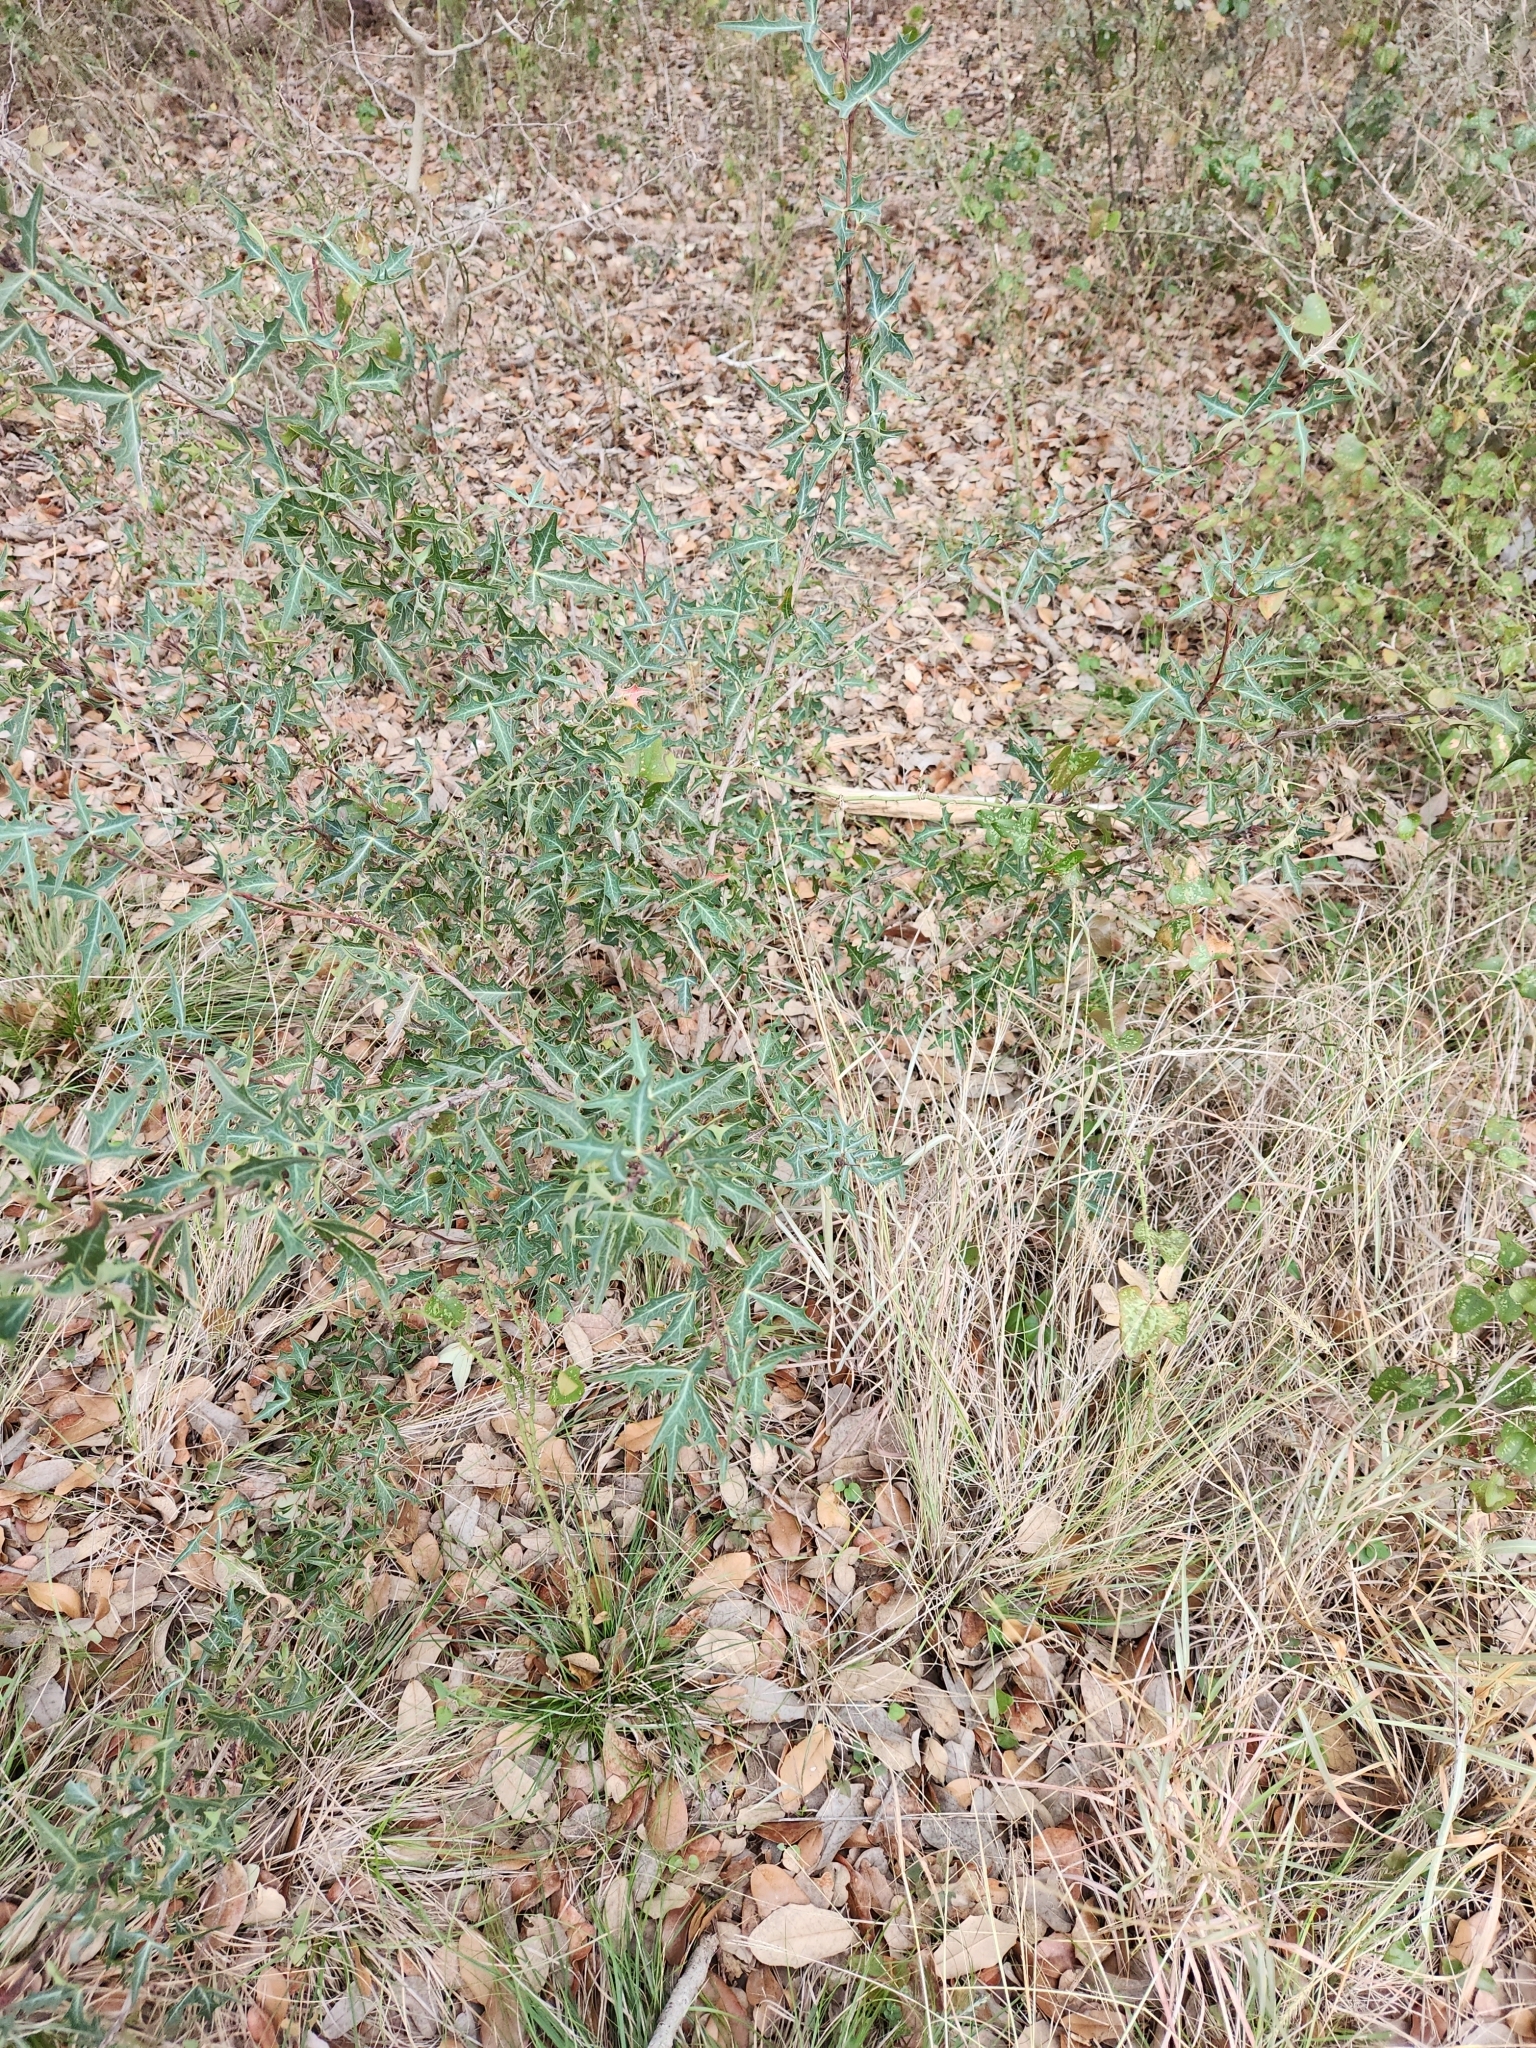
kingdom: Plantae
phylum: Tracheophyta
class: Magnoliopsida
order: Ranunculales
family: Berberidaceae
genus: Alloberberis
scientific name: Alloberberis trifoliolata
